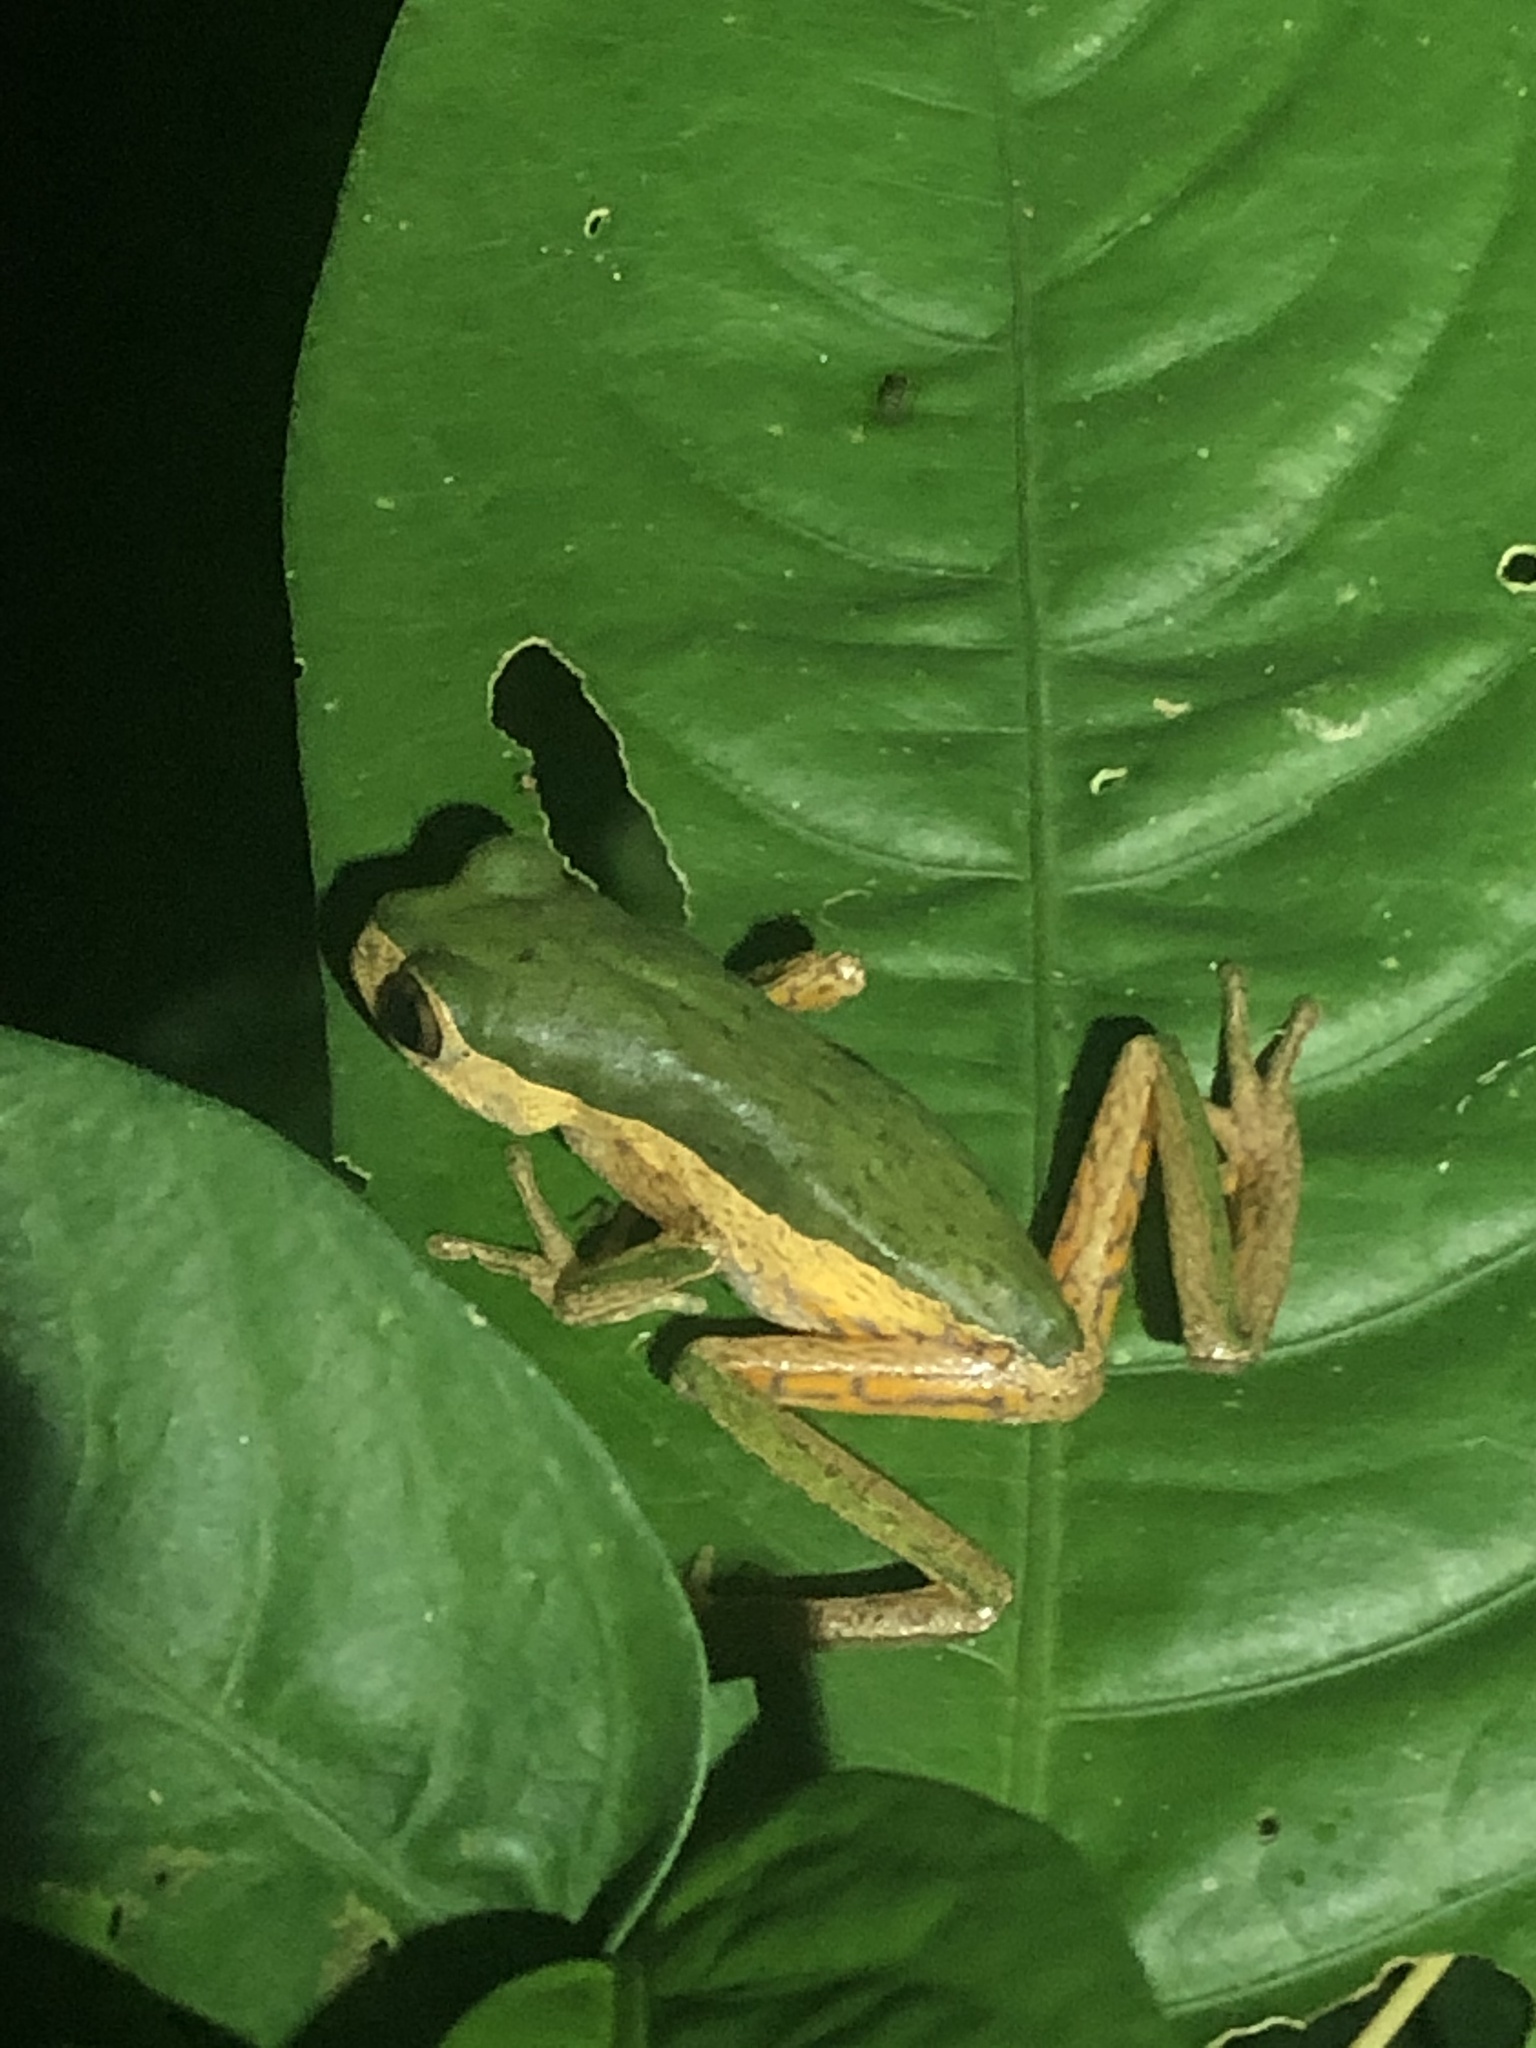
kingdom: Animalia
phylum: Chordata
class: Amphibia
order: Anura
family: Phyllomedusidae
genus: Pithecopus
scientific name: Pithecopus palliatus
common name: Jaguar leaf frog
